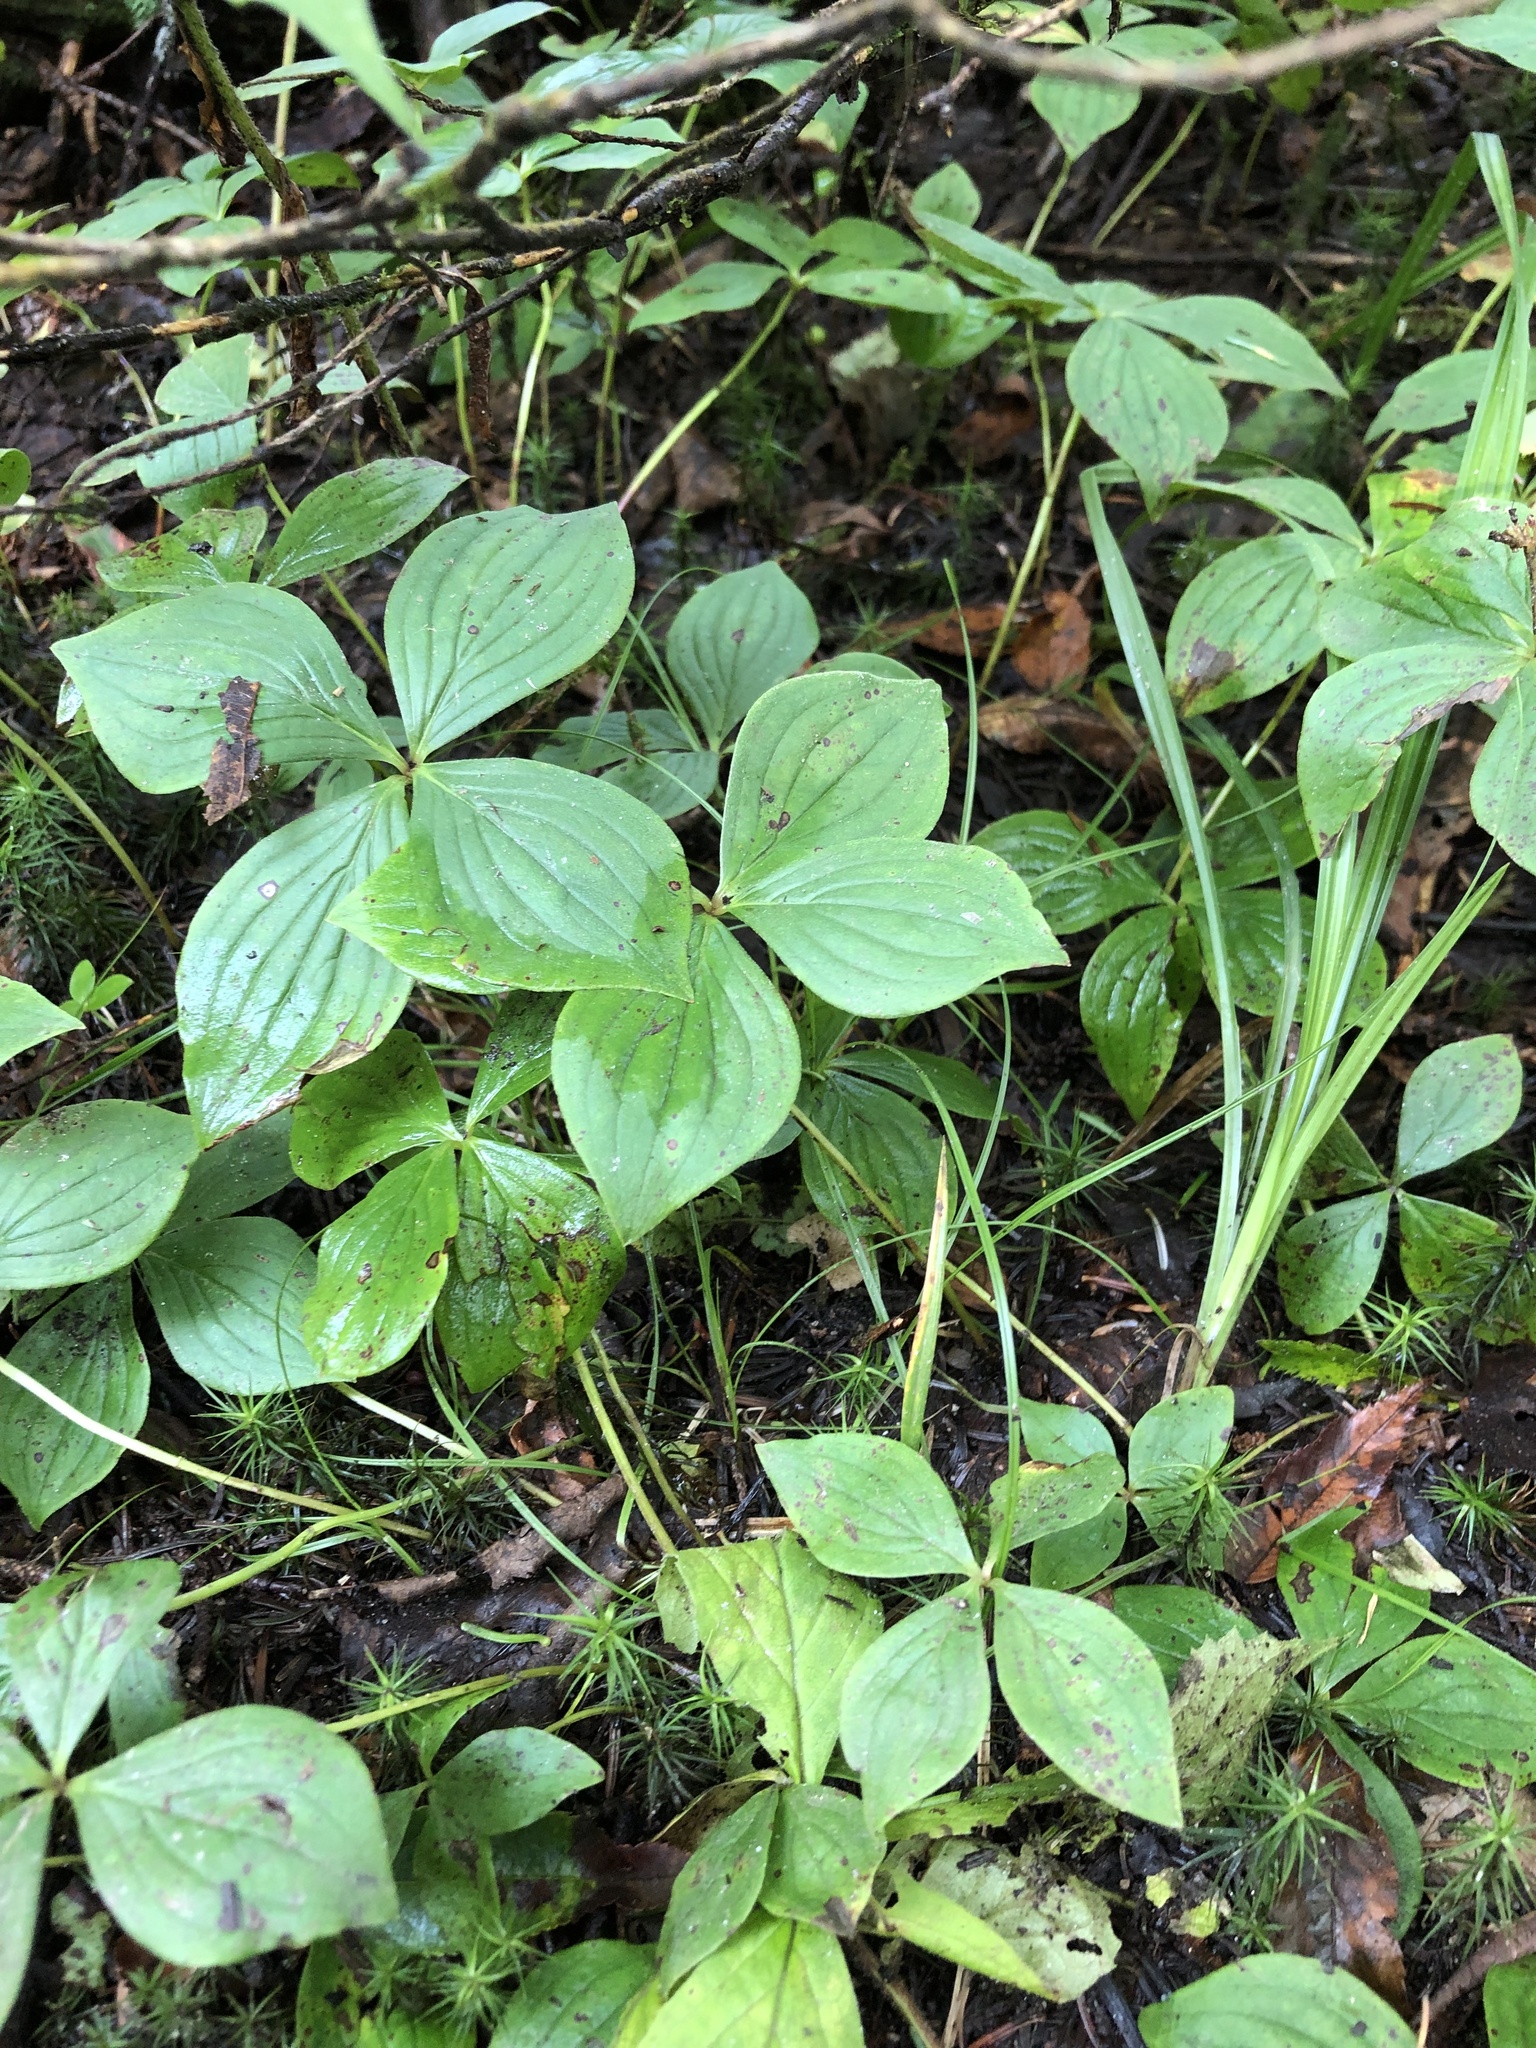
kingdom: Plantae
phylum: Tracheophyta
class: Magnoliopsida
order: Cornales
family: Cornaceae
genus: Cornus
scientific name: Cornus canadensis
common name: Creeping dogwood
